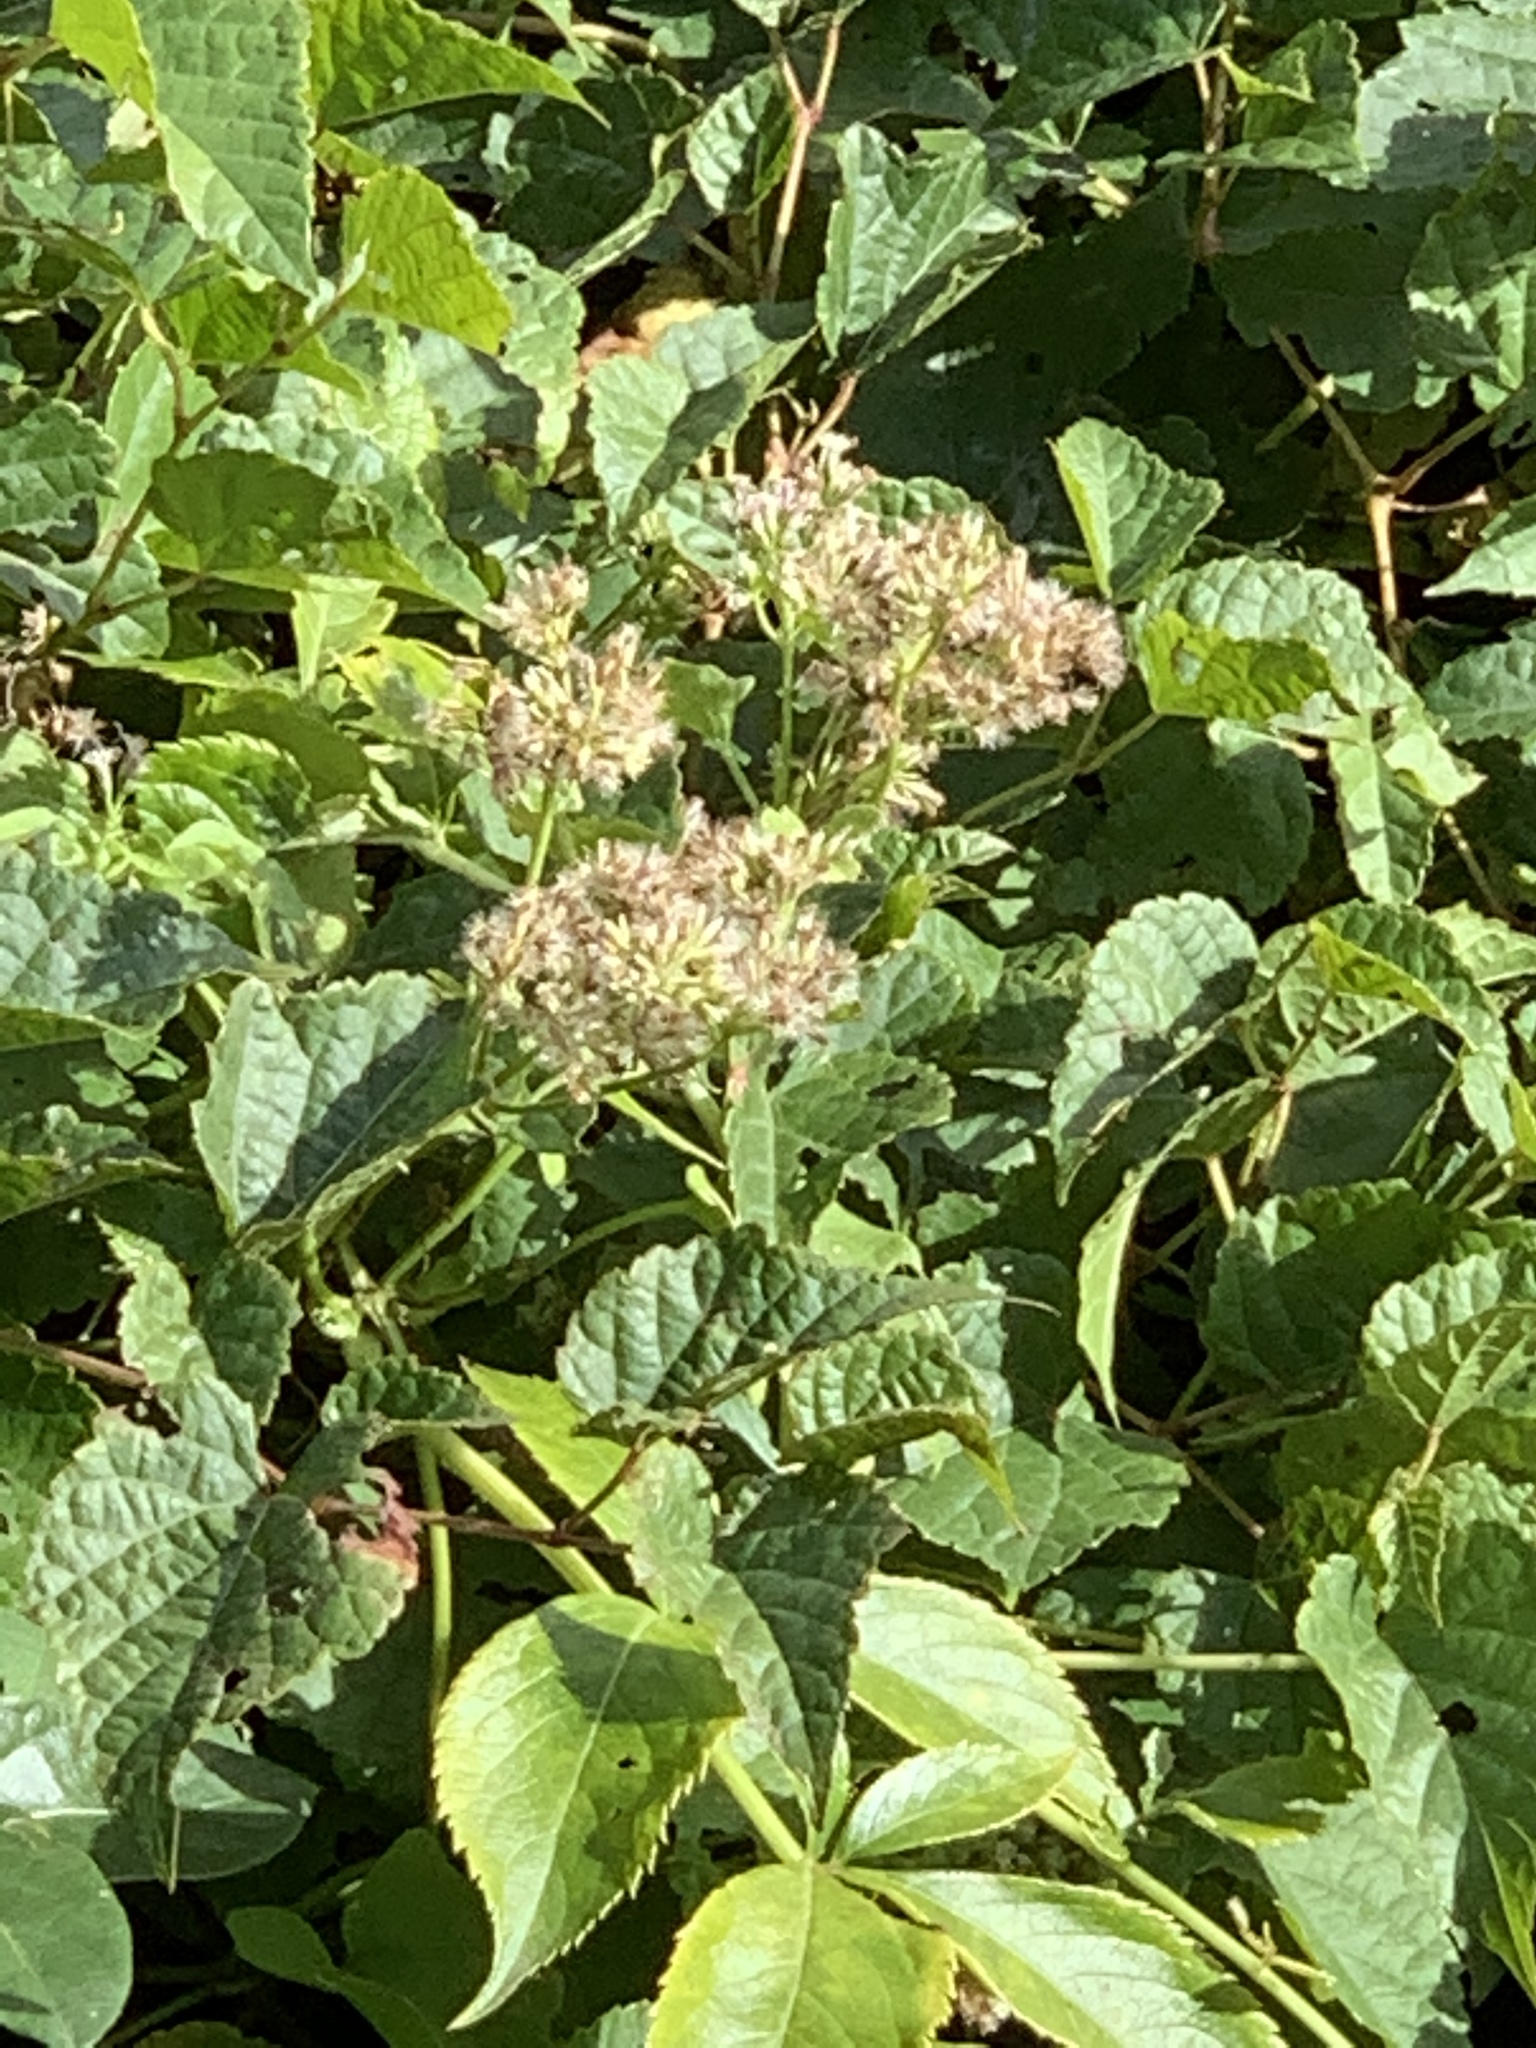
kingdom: Plantae
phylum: Tracheophyta
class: Magnoliopsida
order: Asterales
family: Asteraceae
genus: Mikania
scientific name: Mikania scandens
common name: Climbing hempvine
